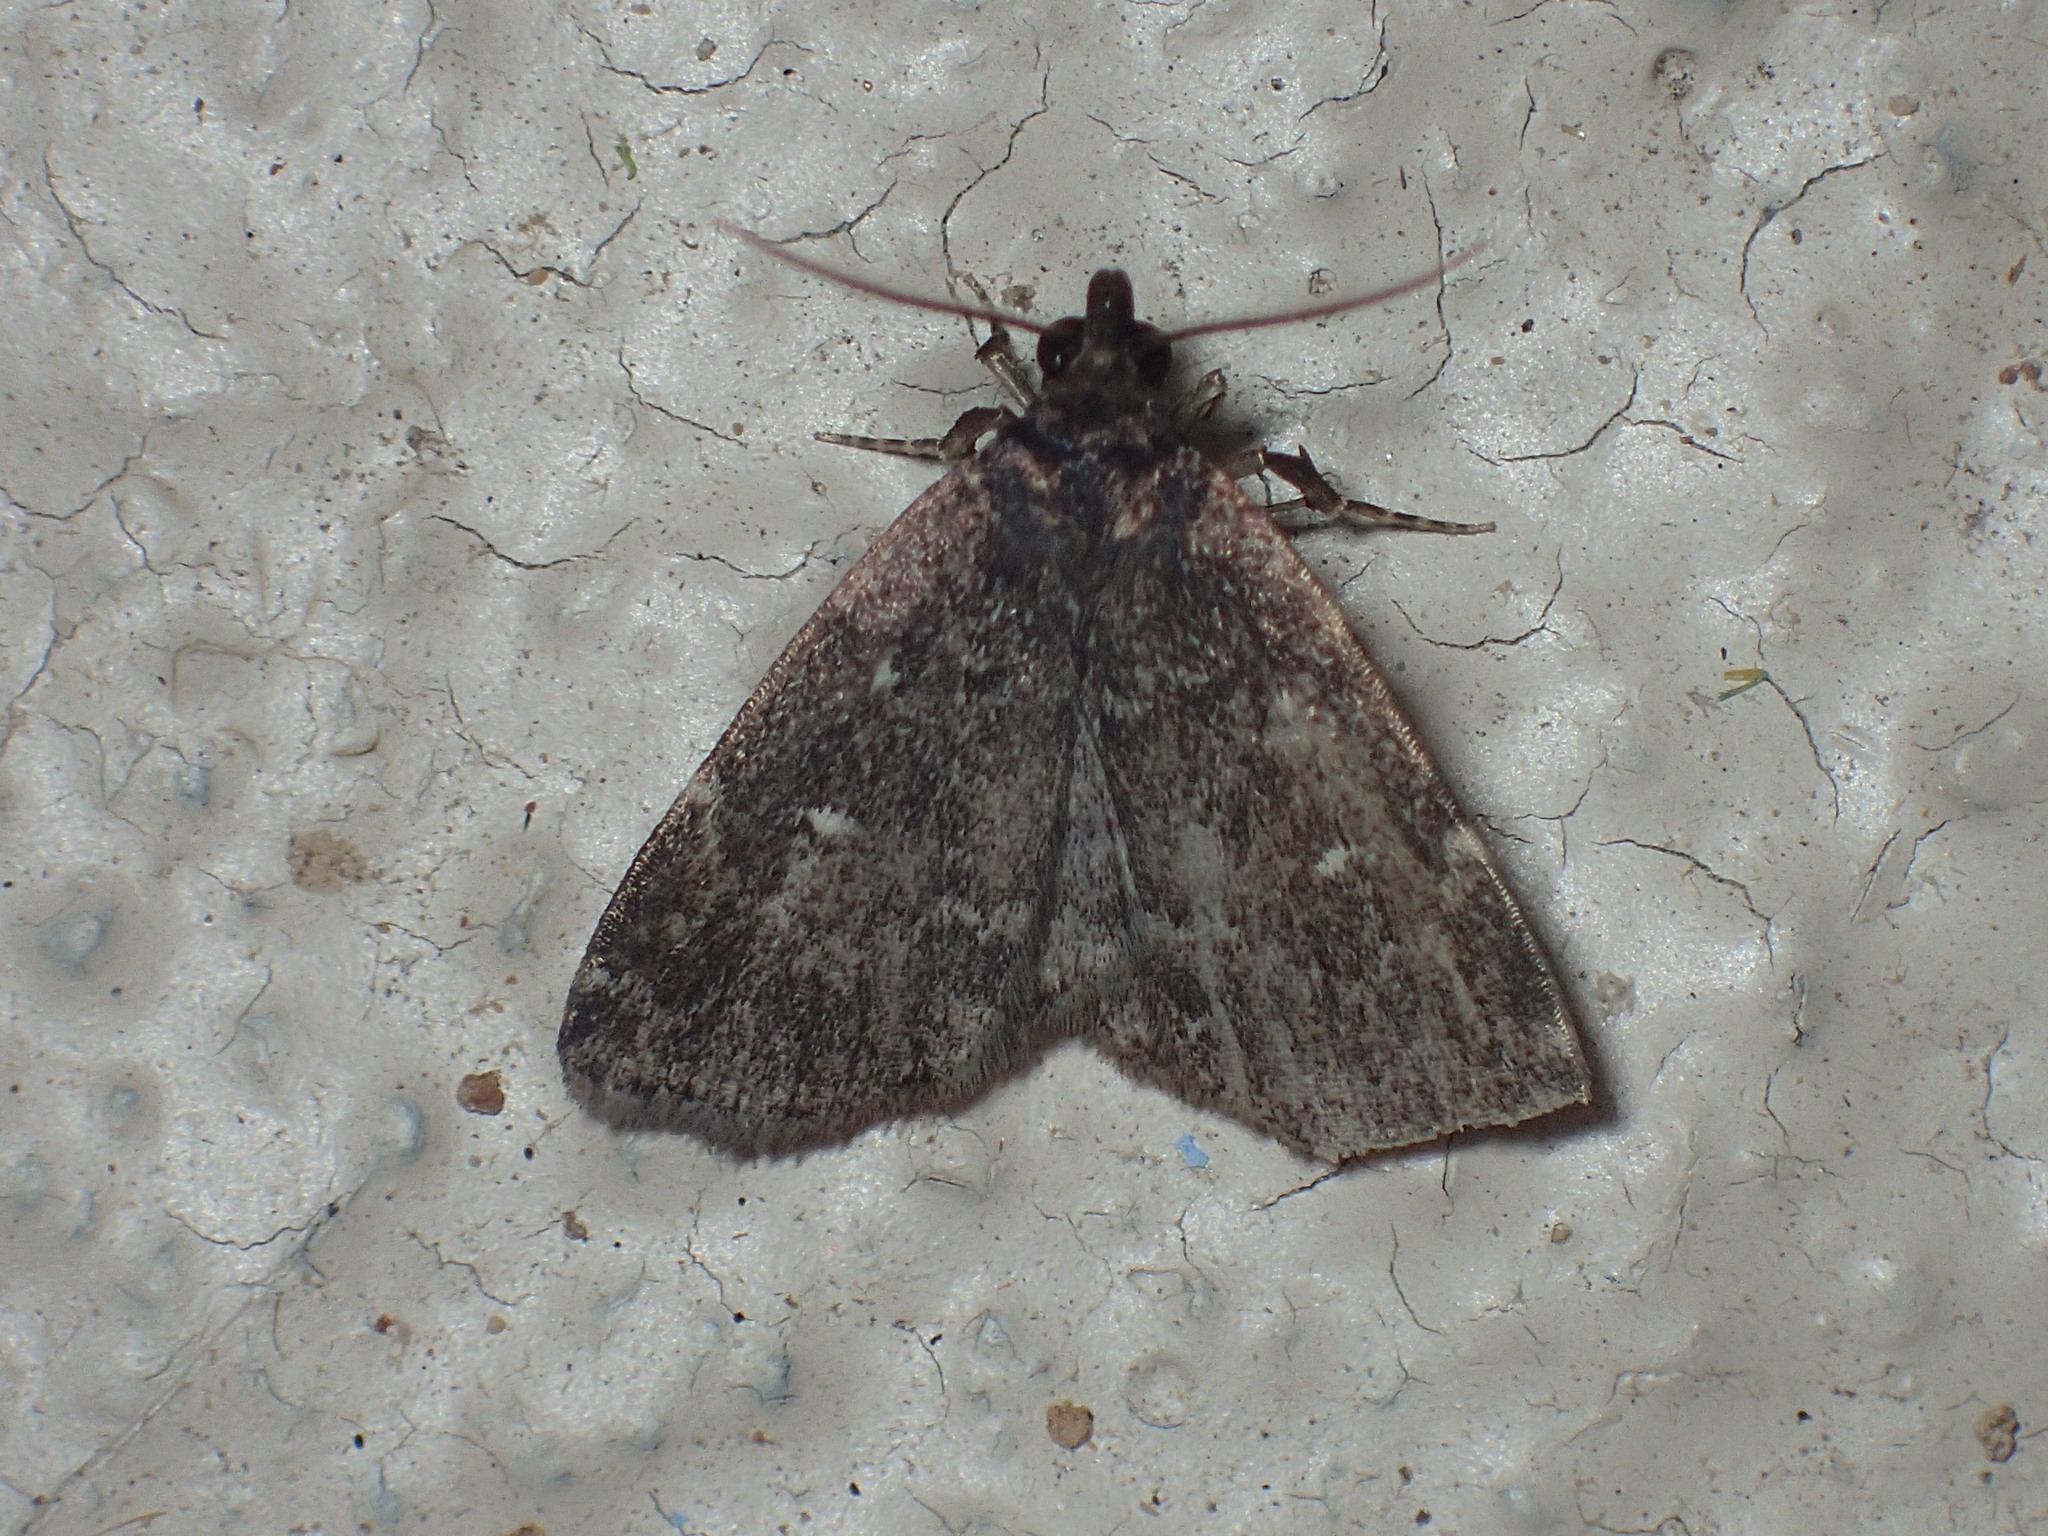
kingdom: Animalia
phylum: Arthropoda
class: Insecta
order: Lepidoptera
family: Erebidae
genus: Idia
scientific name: Idia julia
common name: Julia's idia moth
